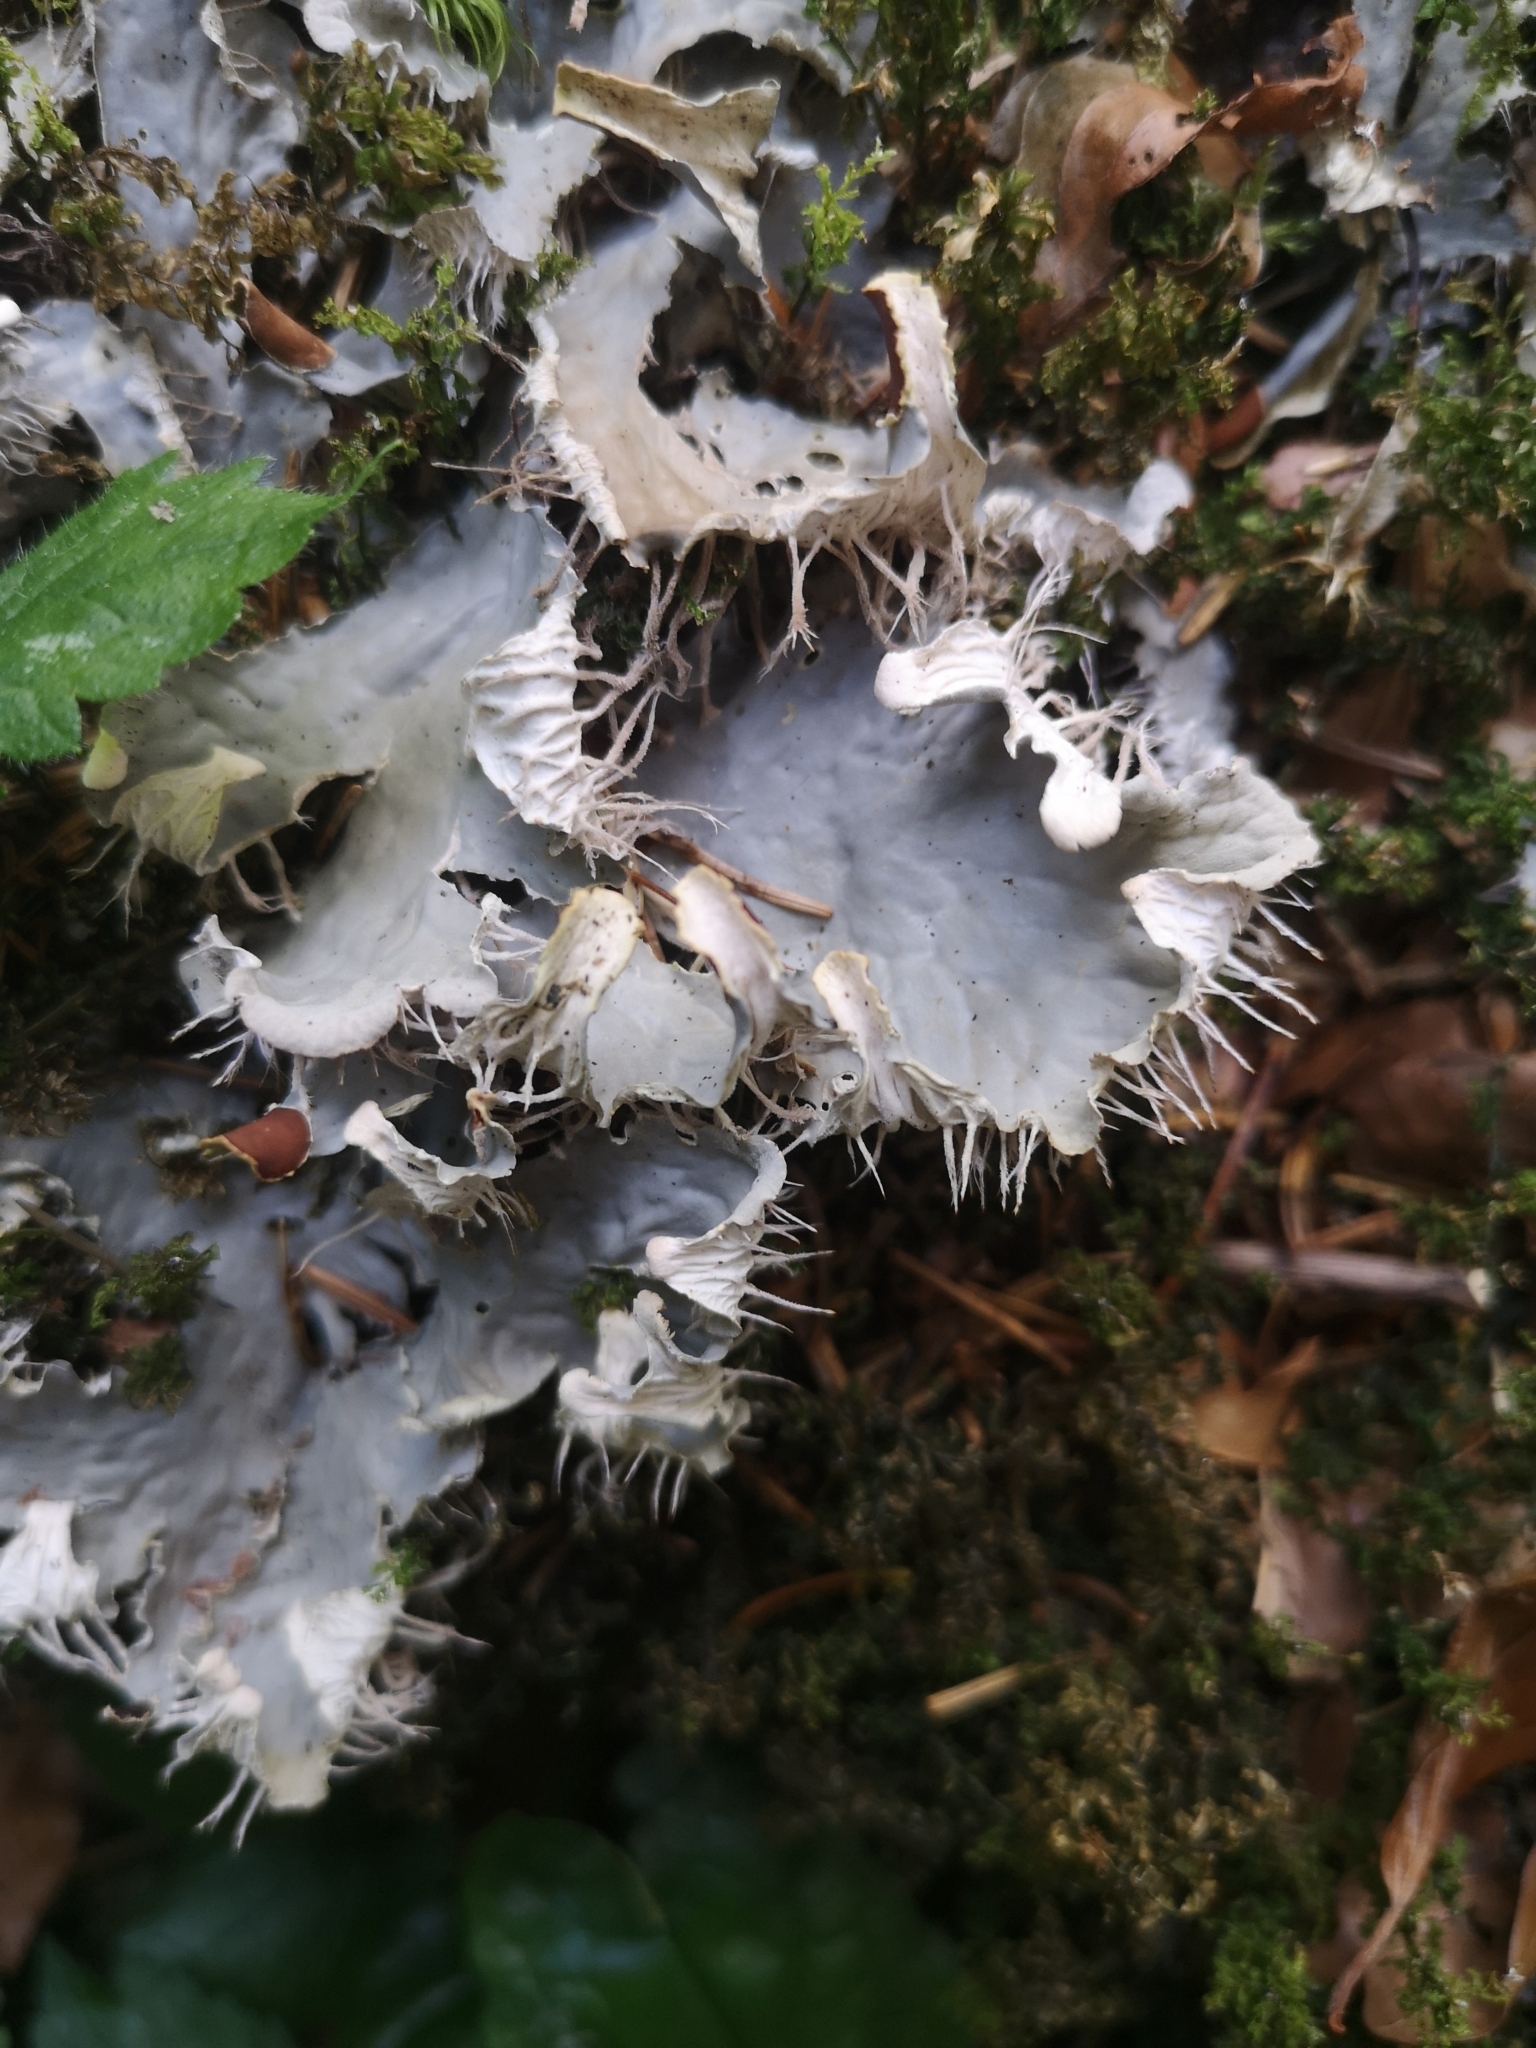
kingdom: Fungi
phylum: Ascomycota
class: Lecanoromycetes
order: Peltigerales
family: Peltigeraceae
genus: Peltigera
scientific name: Peltigera praetextata
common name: Scaly dog-lichen
